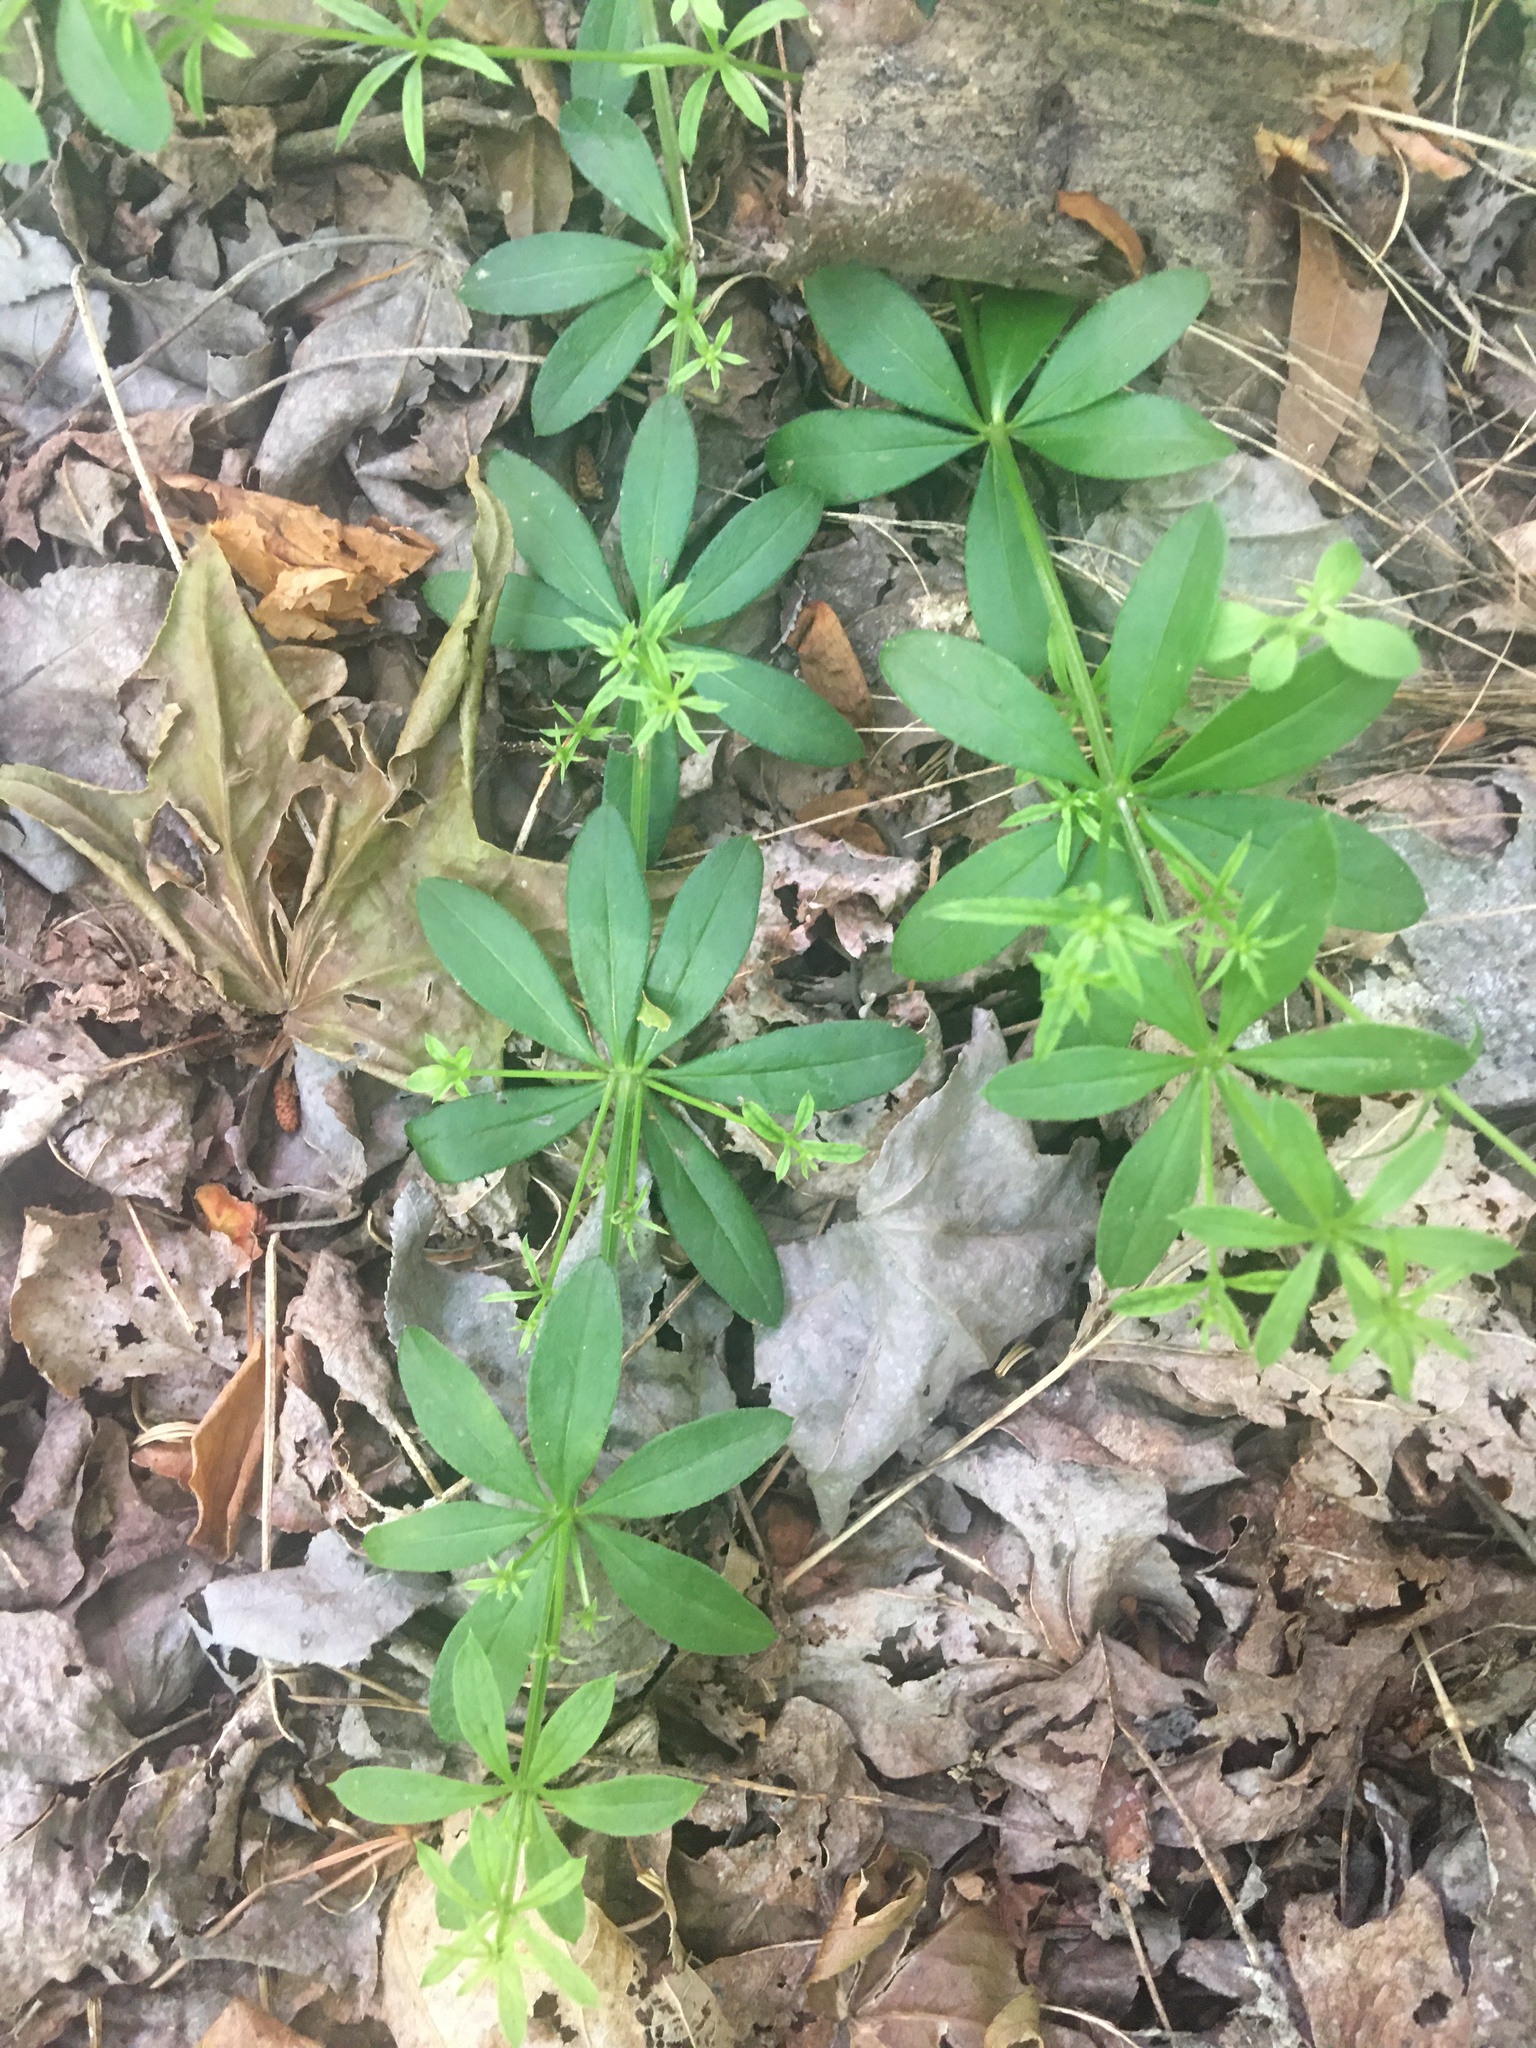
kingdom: Plantae
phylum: Tracheophyta
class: Magnoliopsida
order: Gentianales
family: Rubiaceae
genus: Galium
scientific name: Galium triflorum
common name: Fragrant bedstraw
